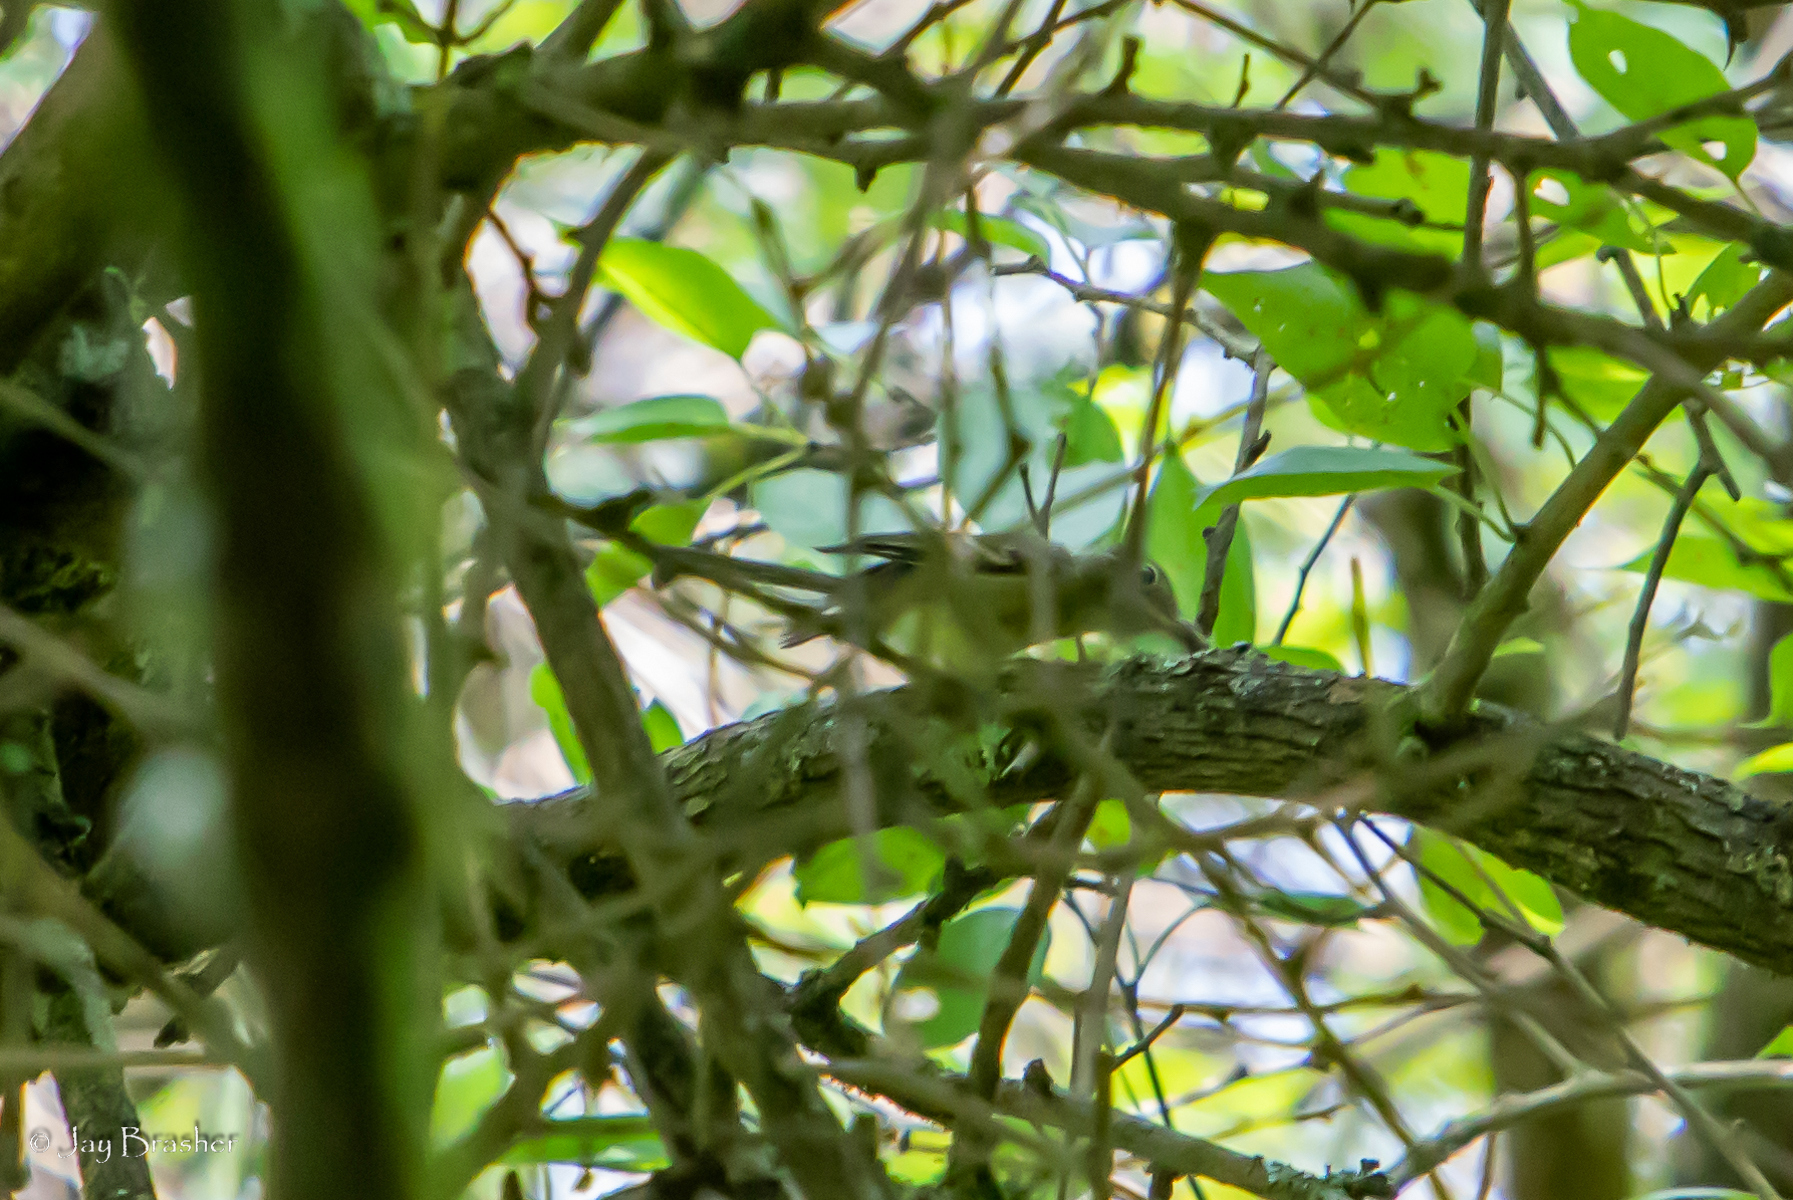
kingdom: Animalia
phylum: Chordata
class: Aves
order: Passeriformes
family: Polioptilidae
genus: Polioptila
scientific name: Polioptila caerulea
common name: Blue-gray gnatcatcher
